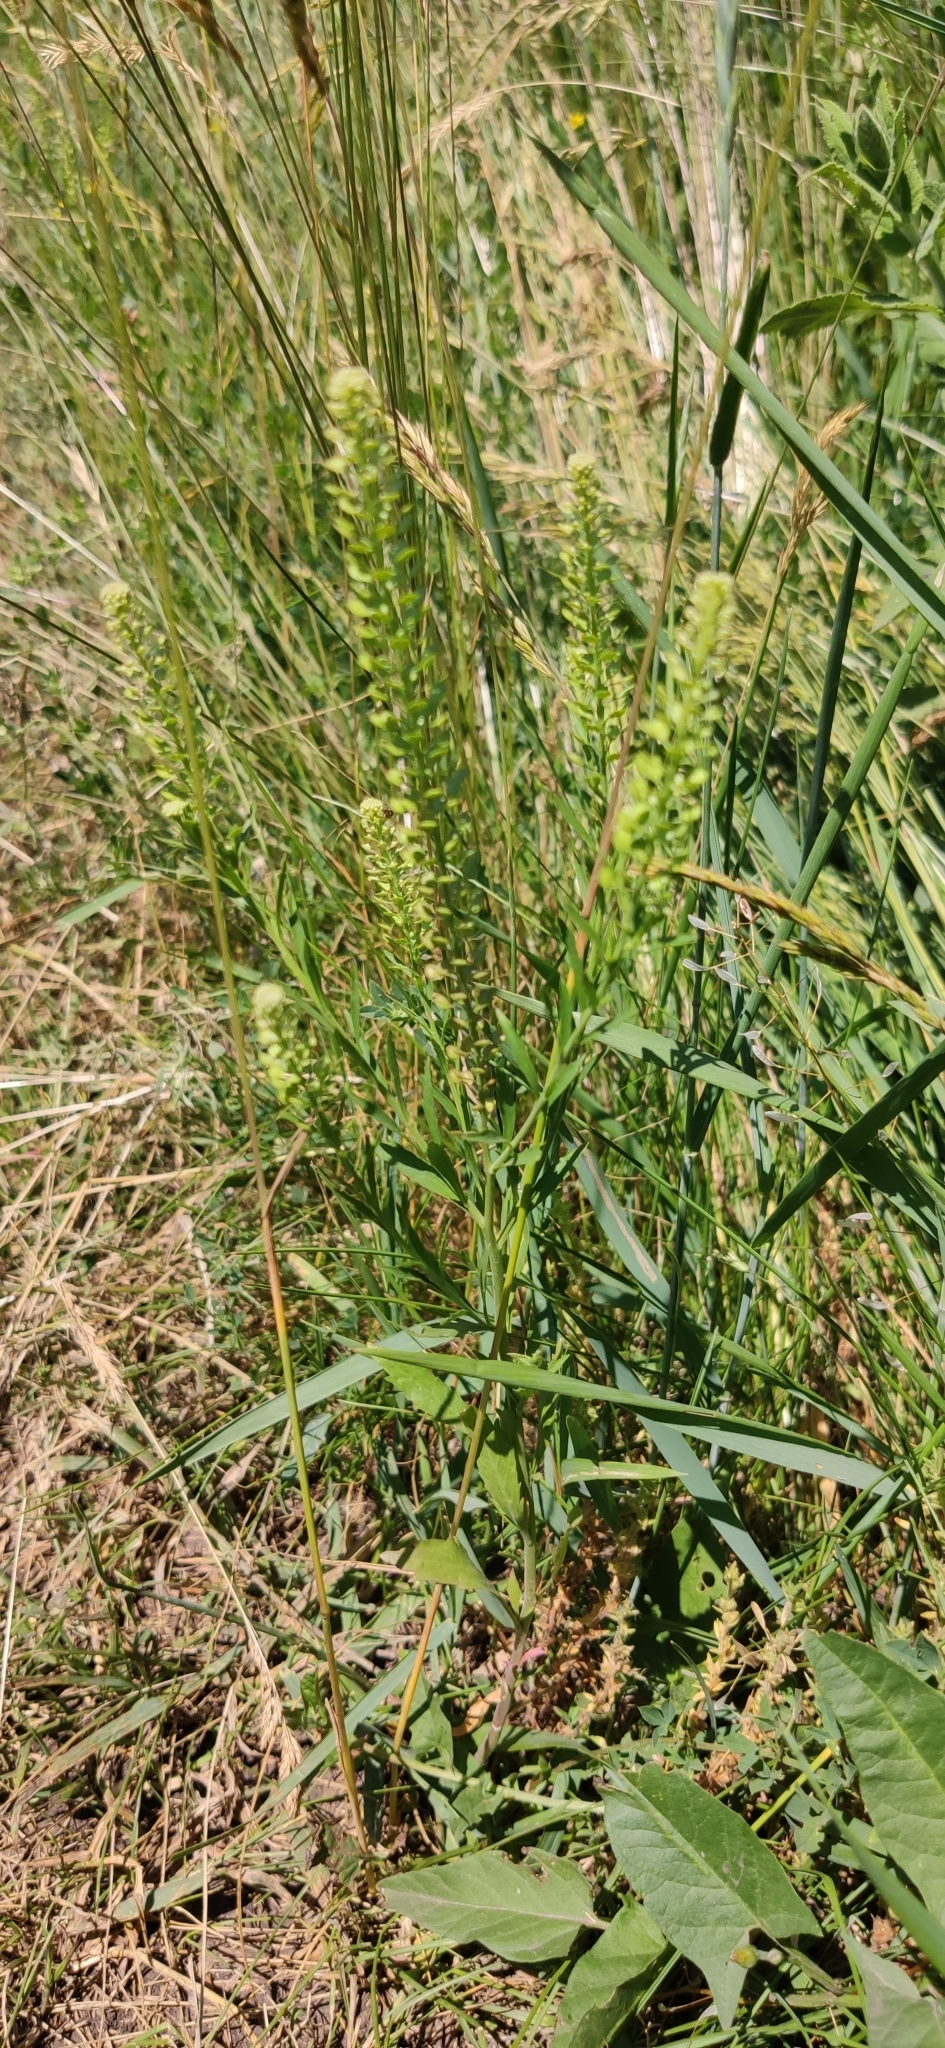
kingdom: Plantae
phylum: Tracheophyta
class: Magnoliopsida
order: Brassicales
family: Brassicaceae
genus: Lepidium
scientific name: Lepidium densiflorum
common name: Miner's pepperwort
